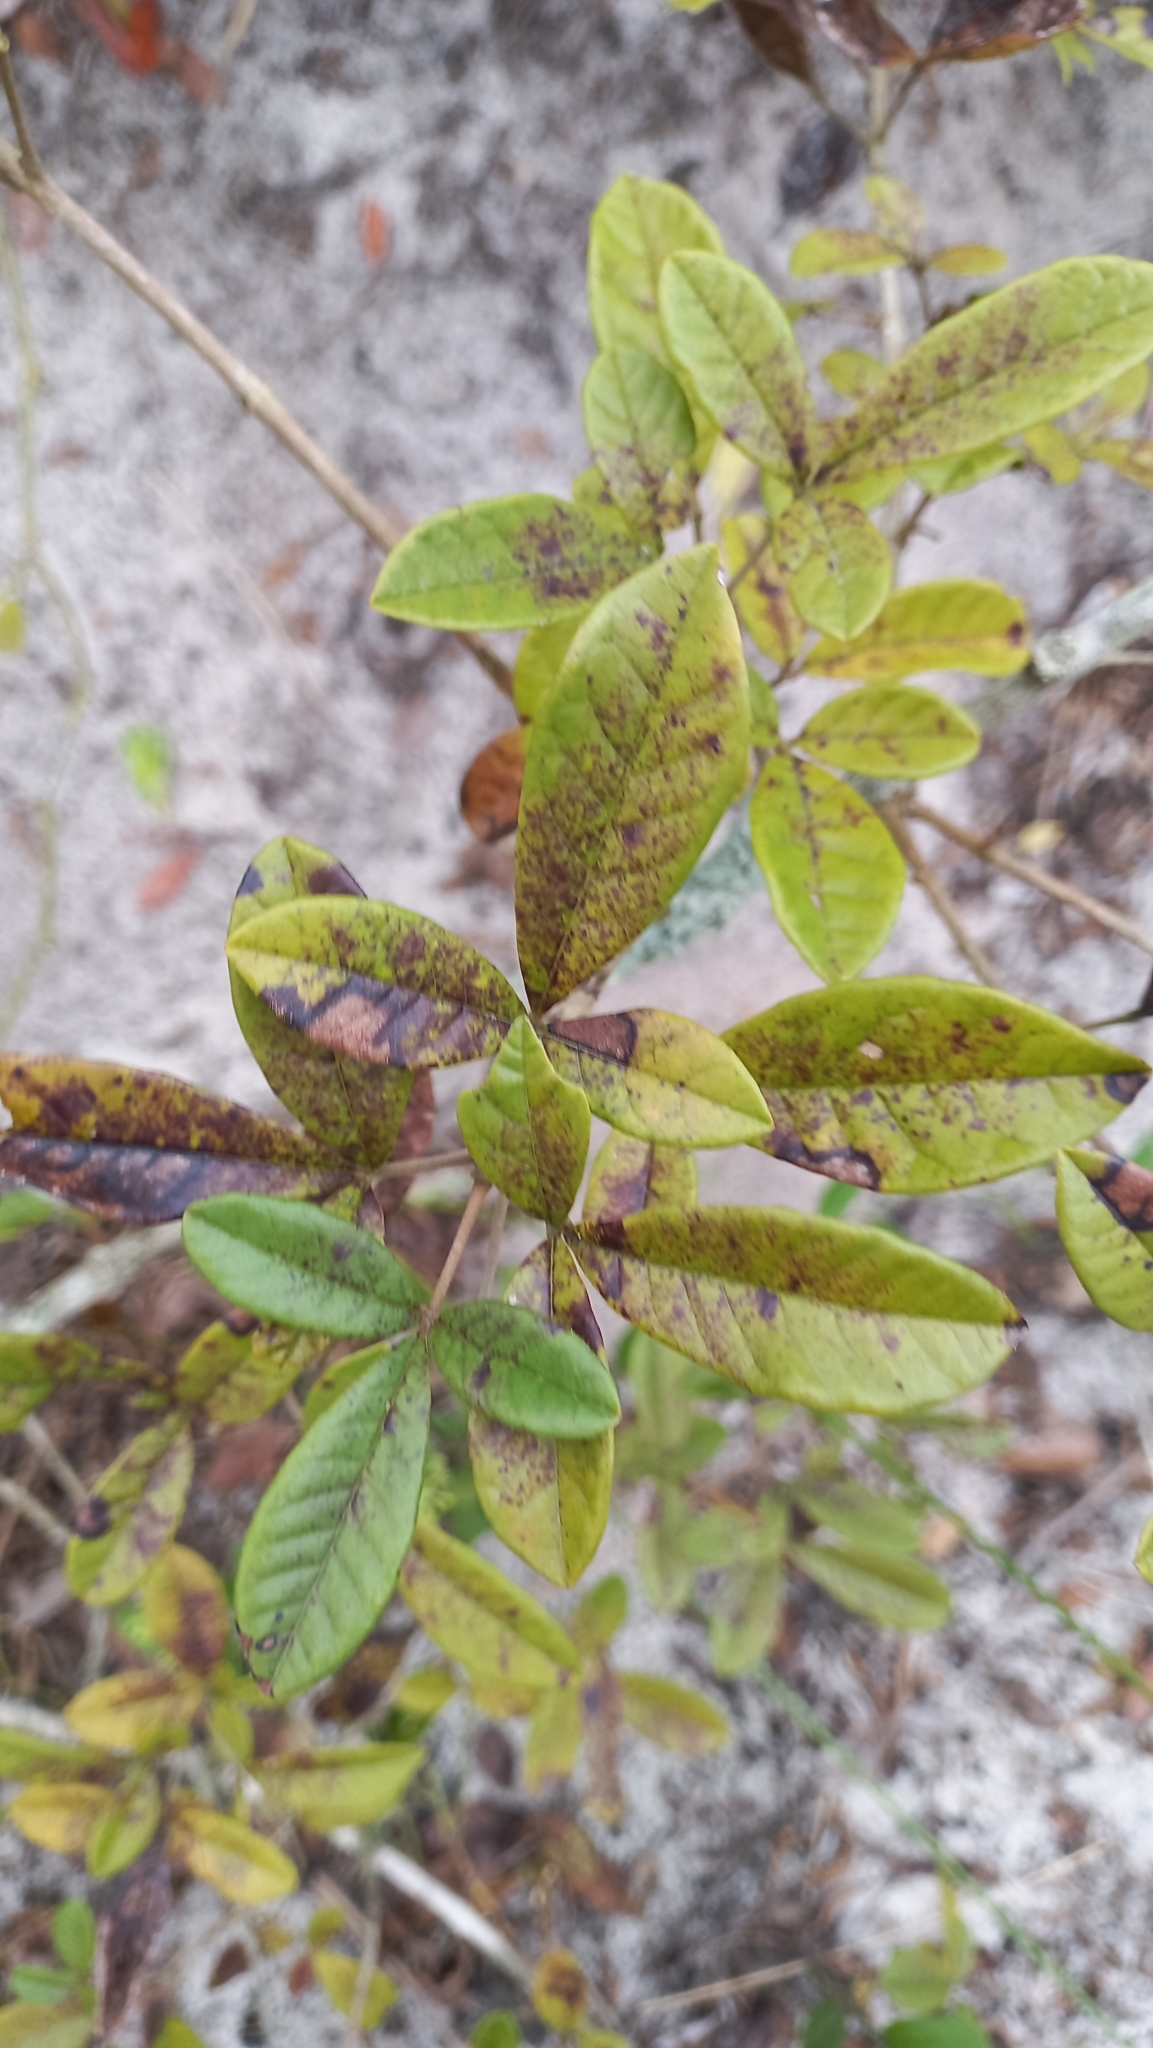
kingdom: Plantae
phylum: Tracheophyta
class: Magnoliopsida
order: Lamiales
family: Lamiaceae
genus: Vitex
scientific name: Vitex megapotamica
